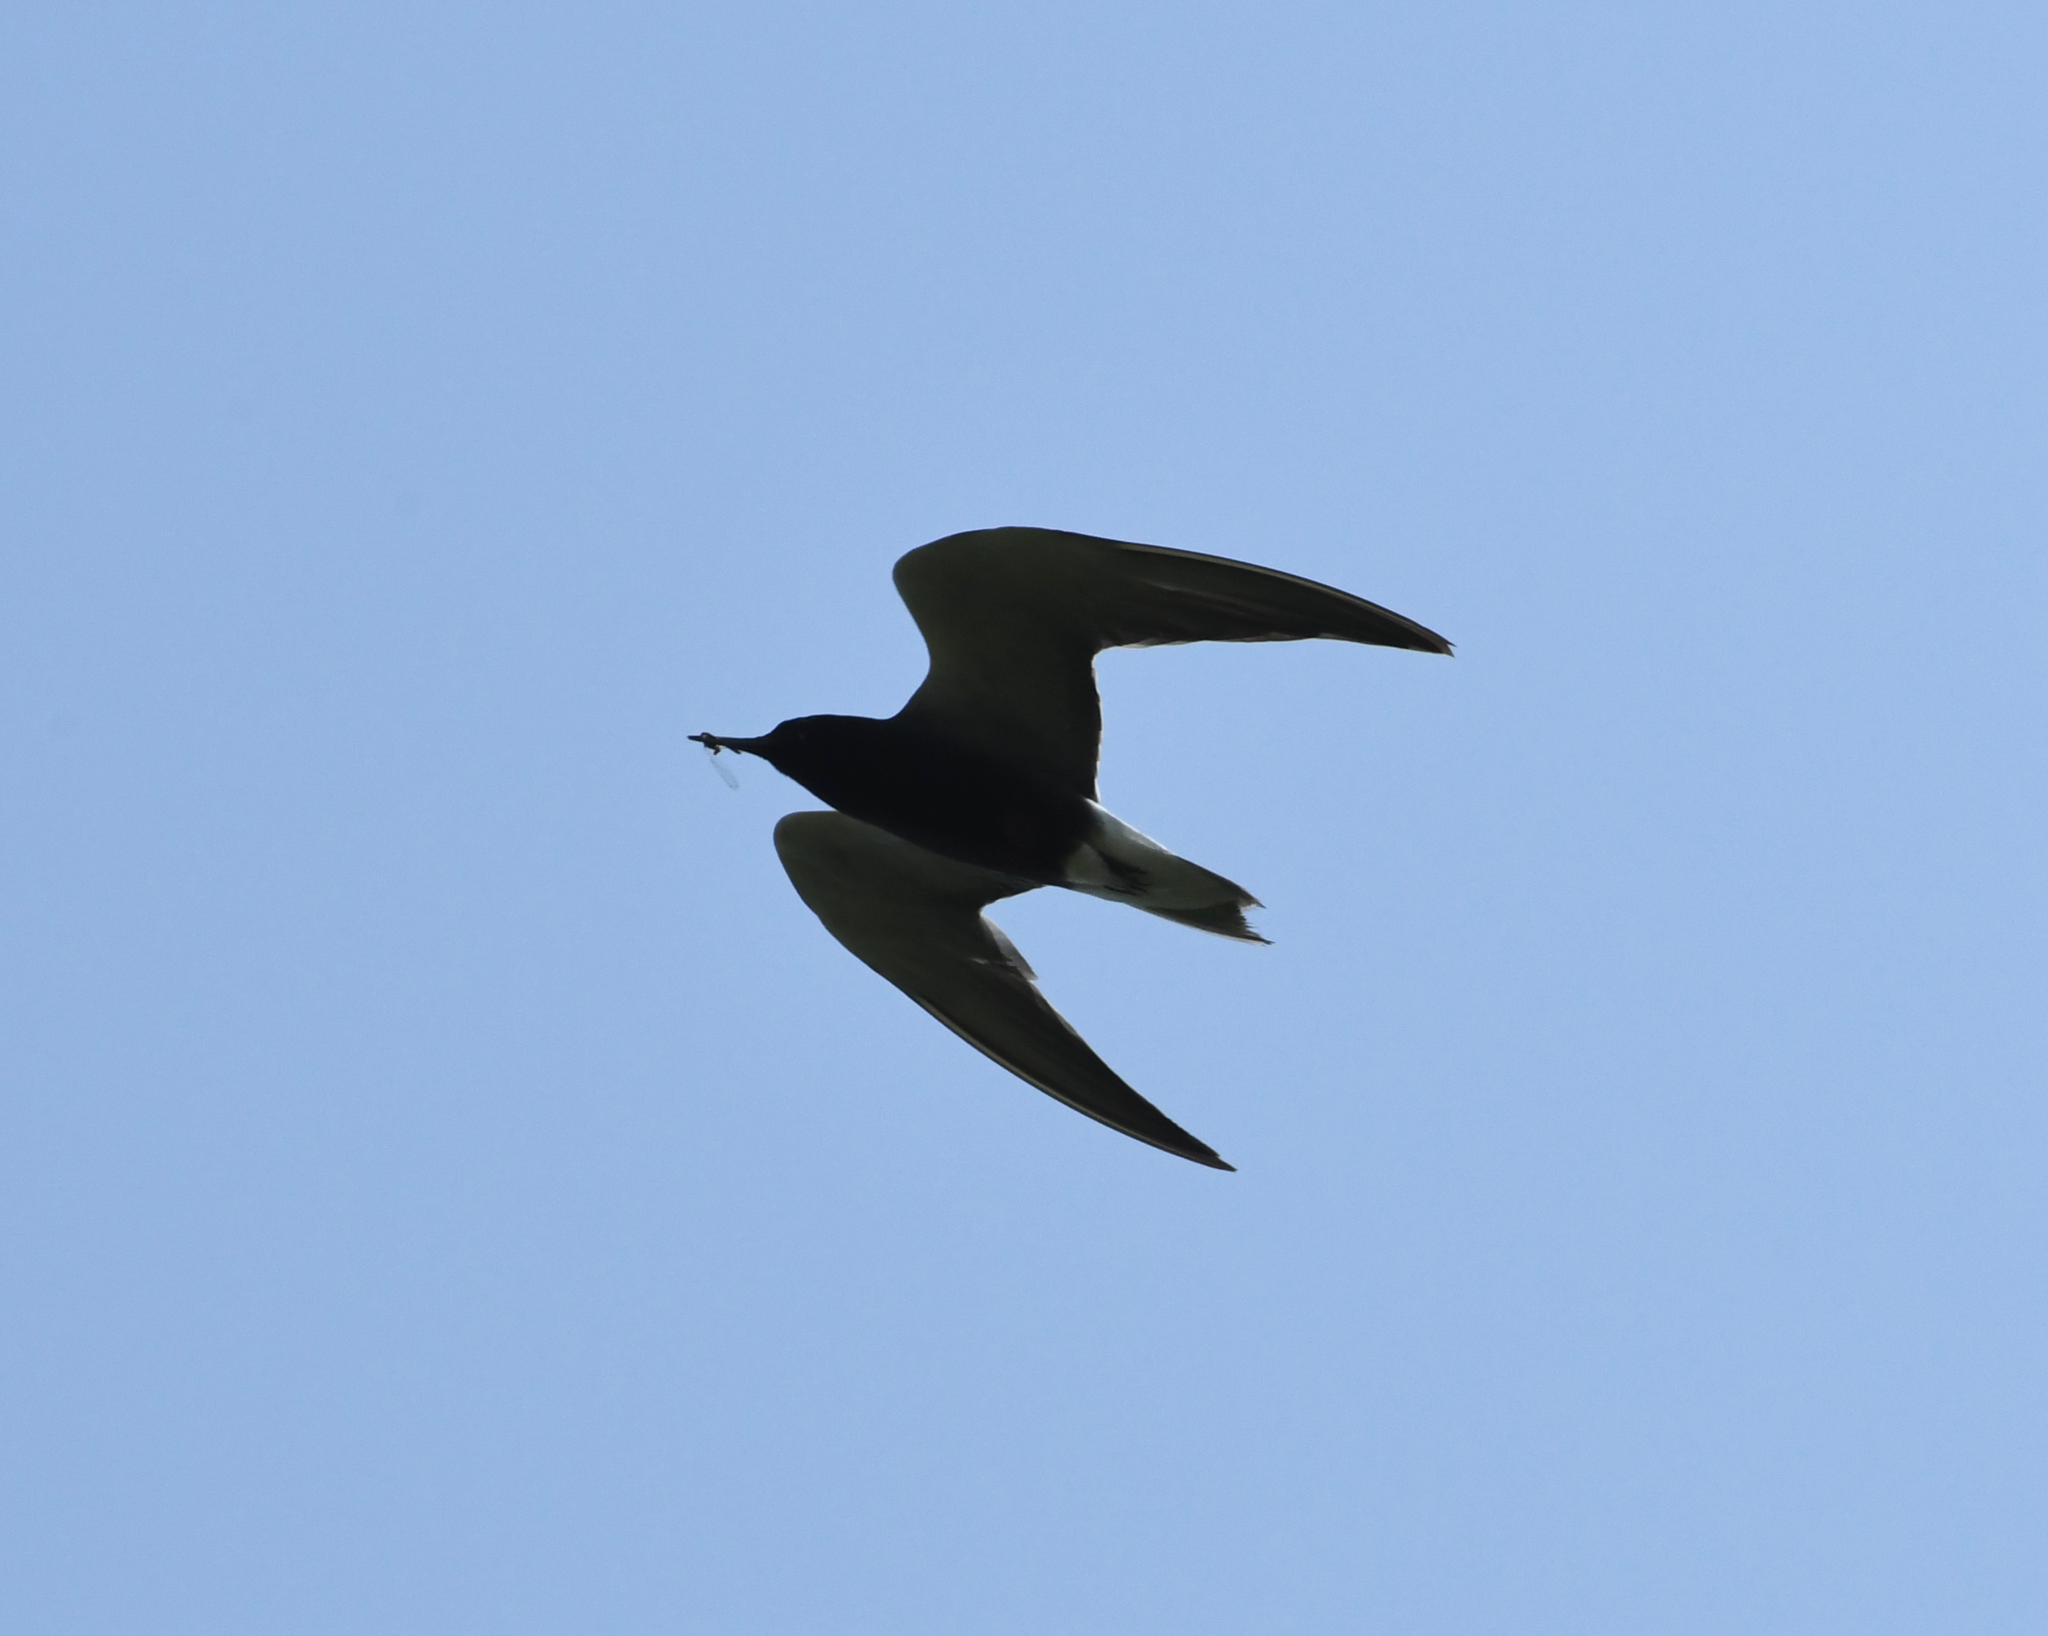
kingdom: Animalia
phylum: Chordata
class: Aves
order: Charadriiformes
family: Laridae
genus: Chlidonias
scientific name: Chlidonias niger
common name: Black tern
